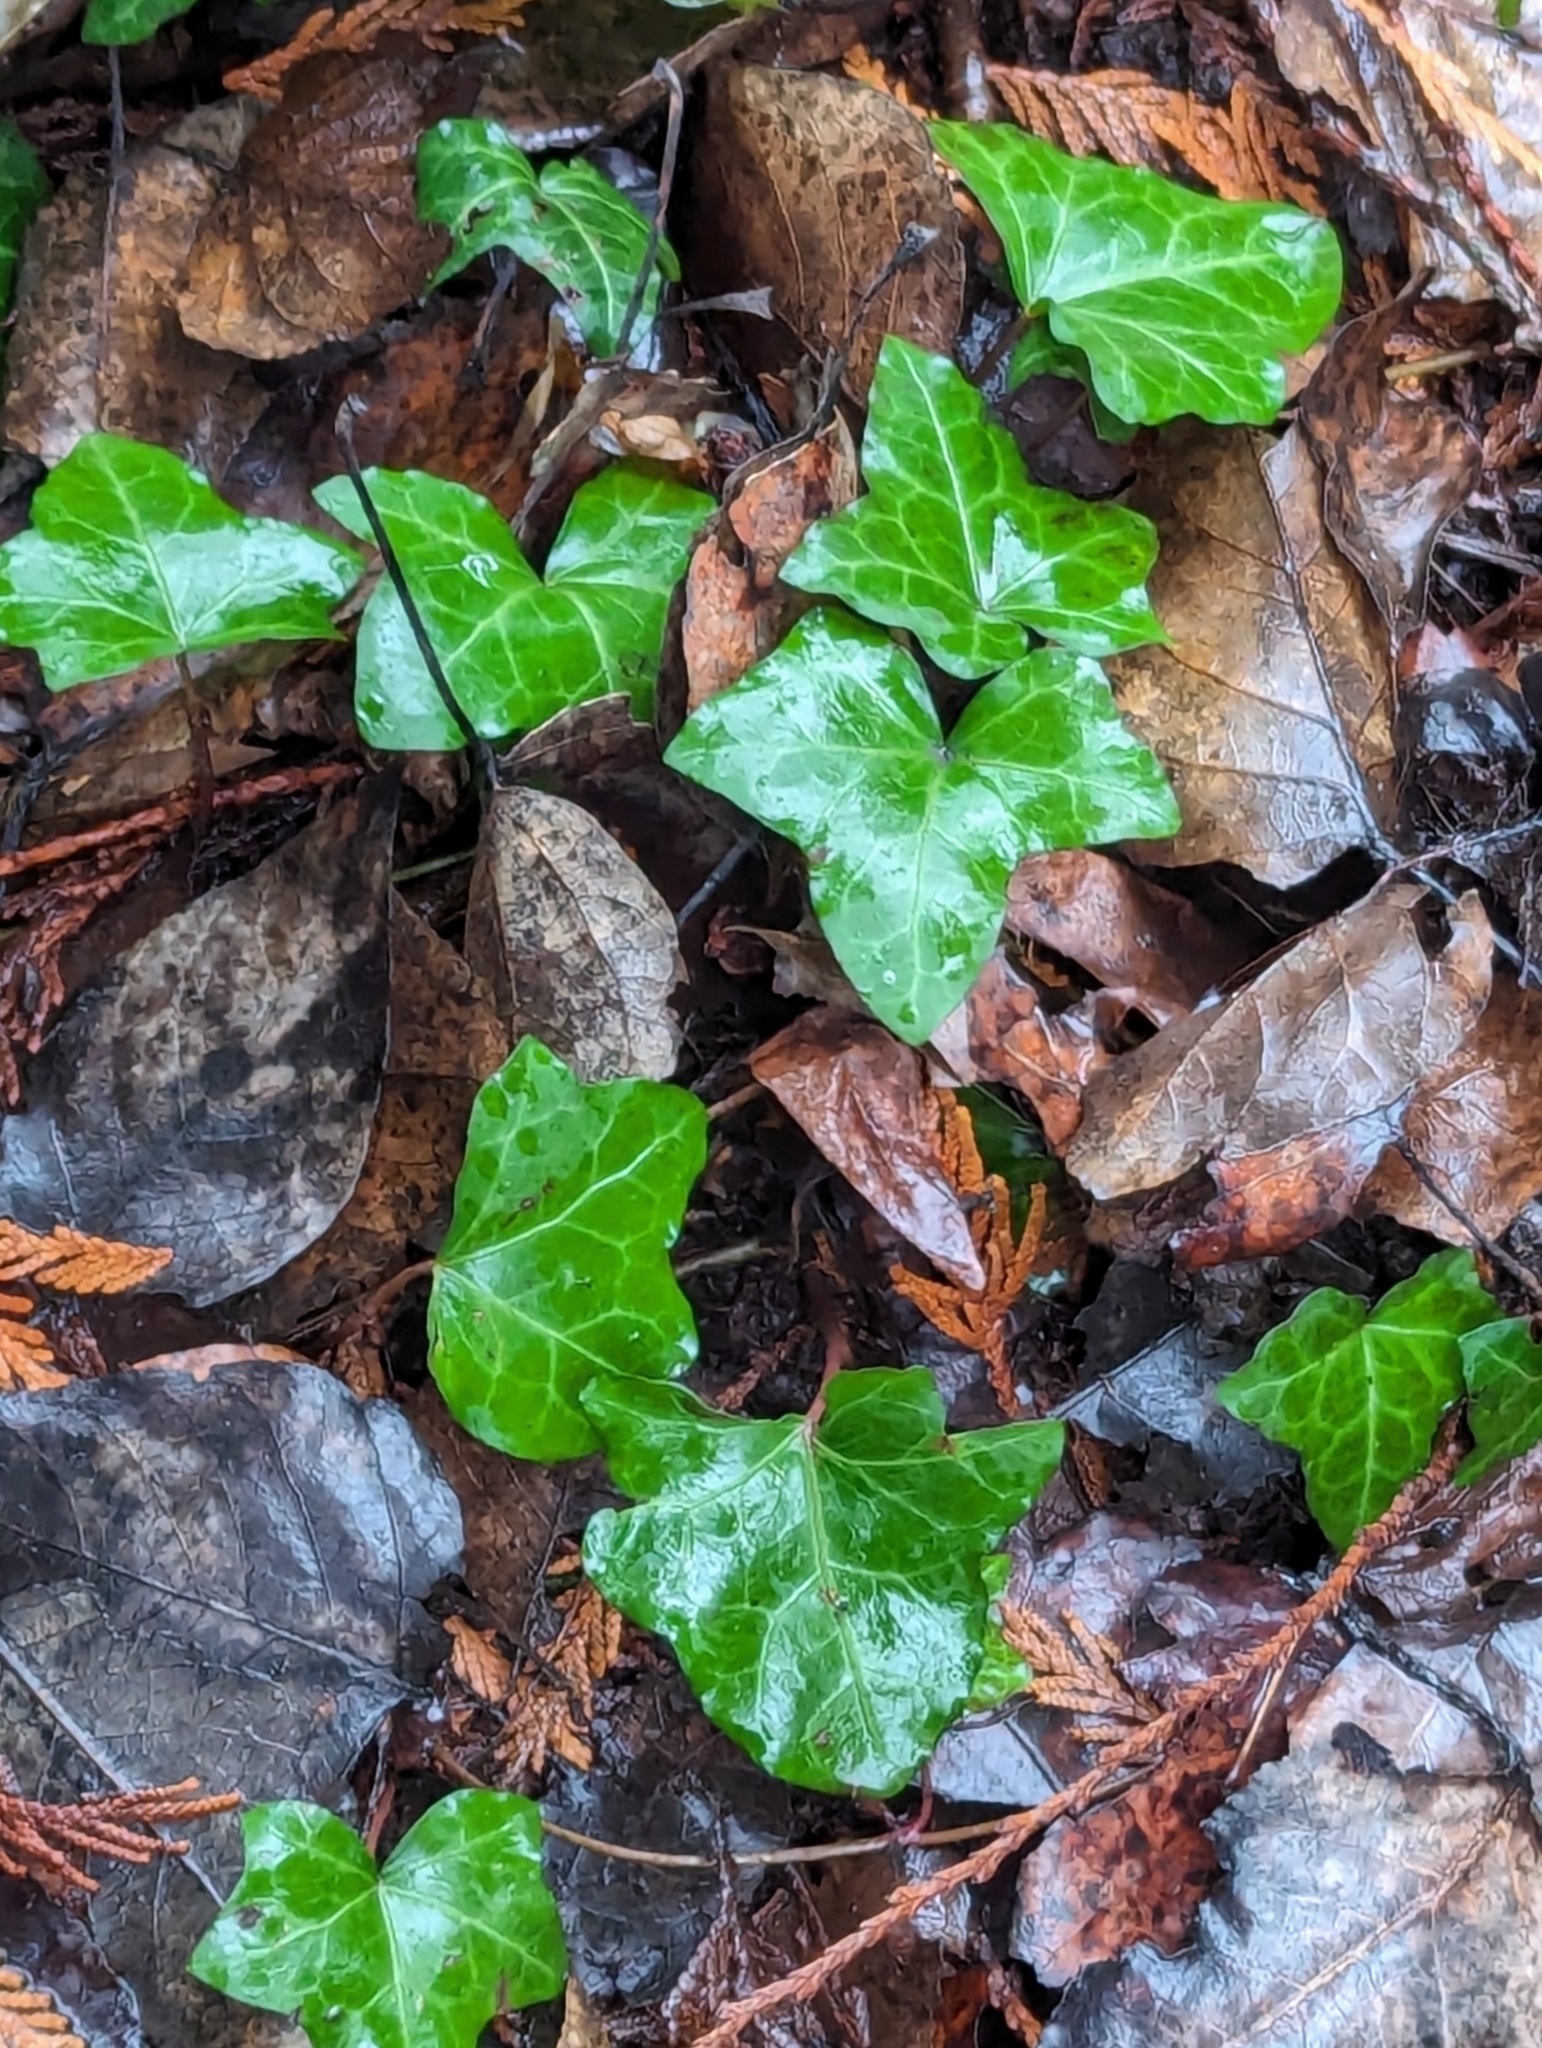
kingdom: Plantae
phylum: Tracheophyta
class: Magnoliopsida
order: Apiales
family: Araliaceae
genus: Hedera
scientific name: Hedera helix
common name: Ivy
